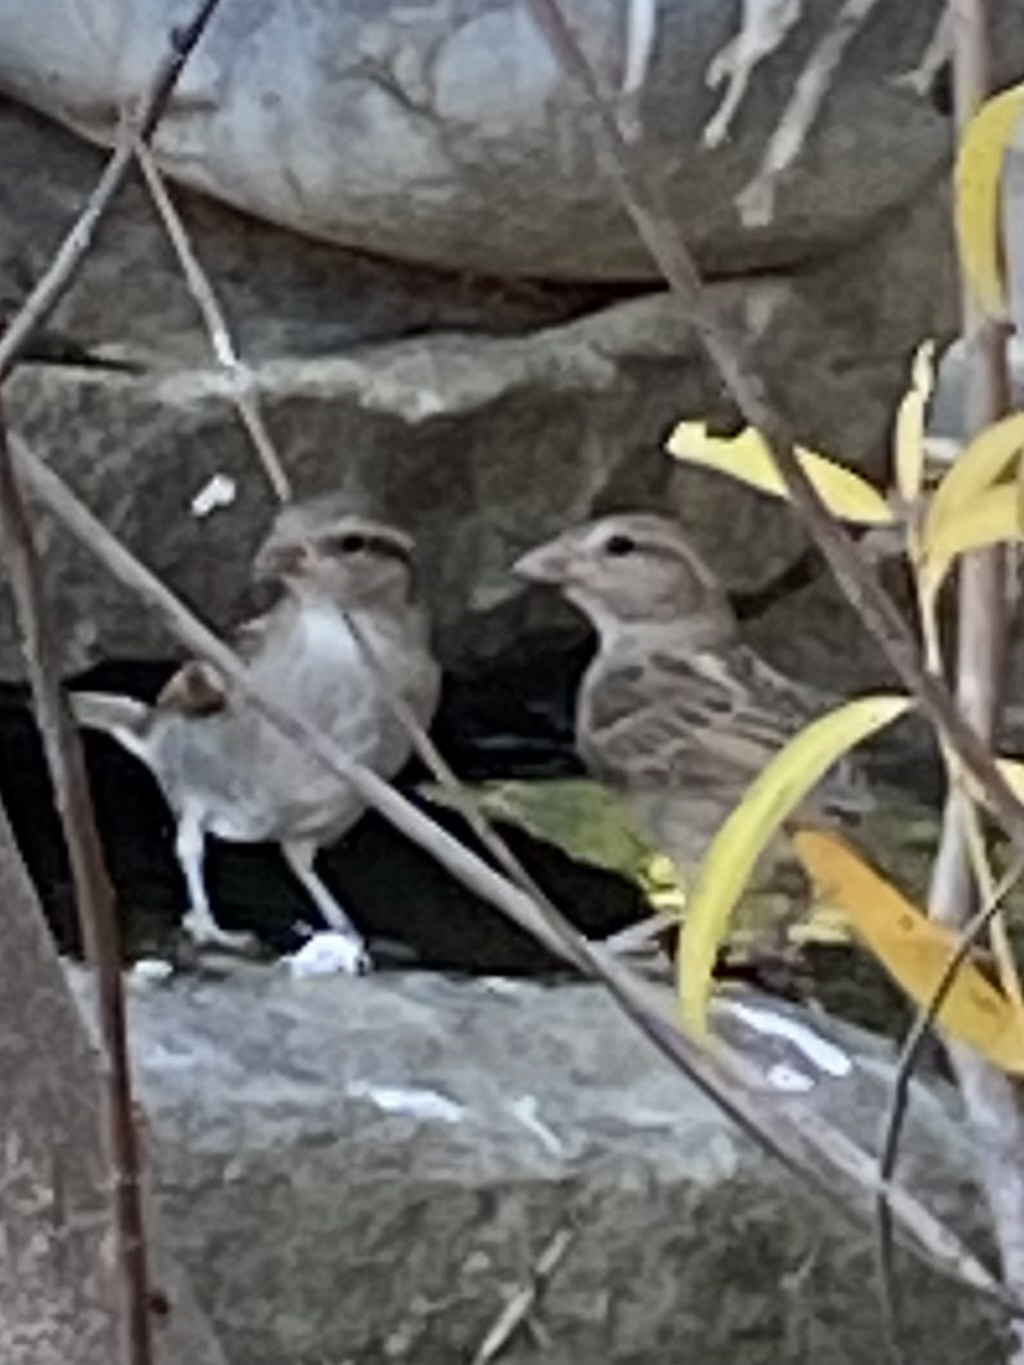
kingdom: Animalia
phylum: Chordata
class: Aves
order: Passeriformes
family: Passeridae
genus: Passer
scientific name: Passer domesticus
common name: House sparrow
